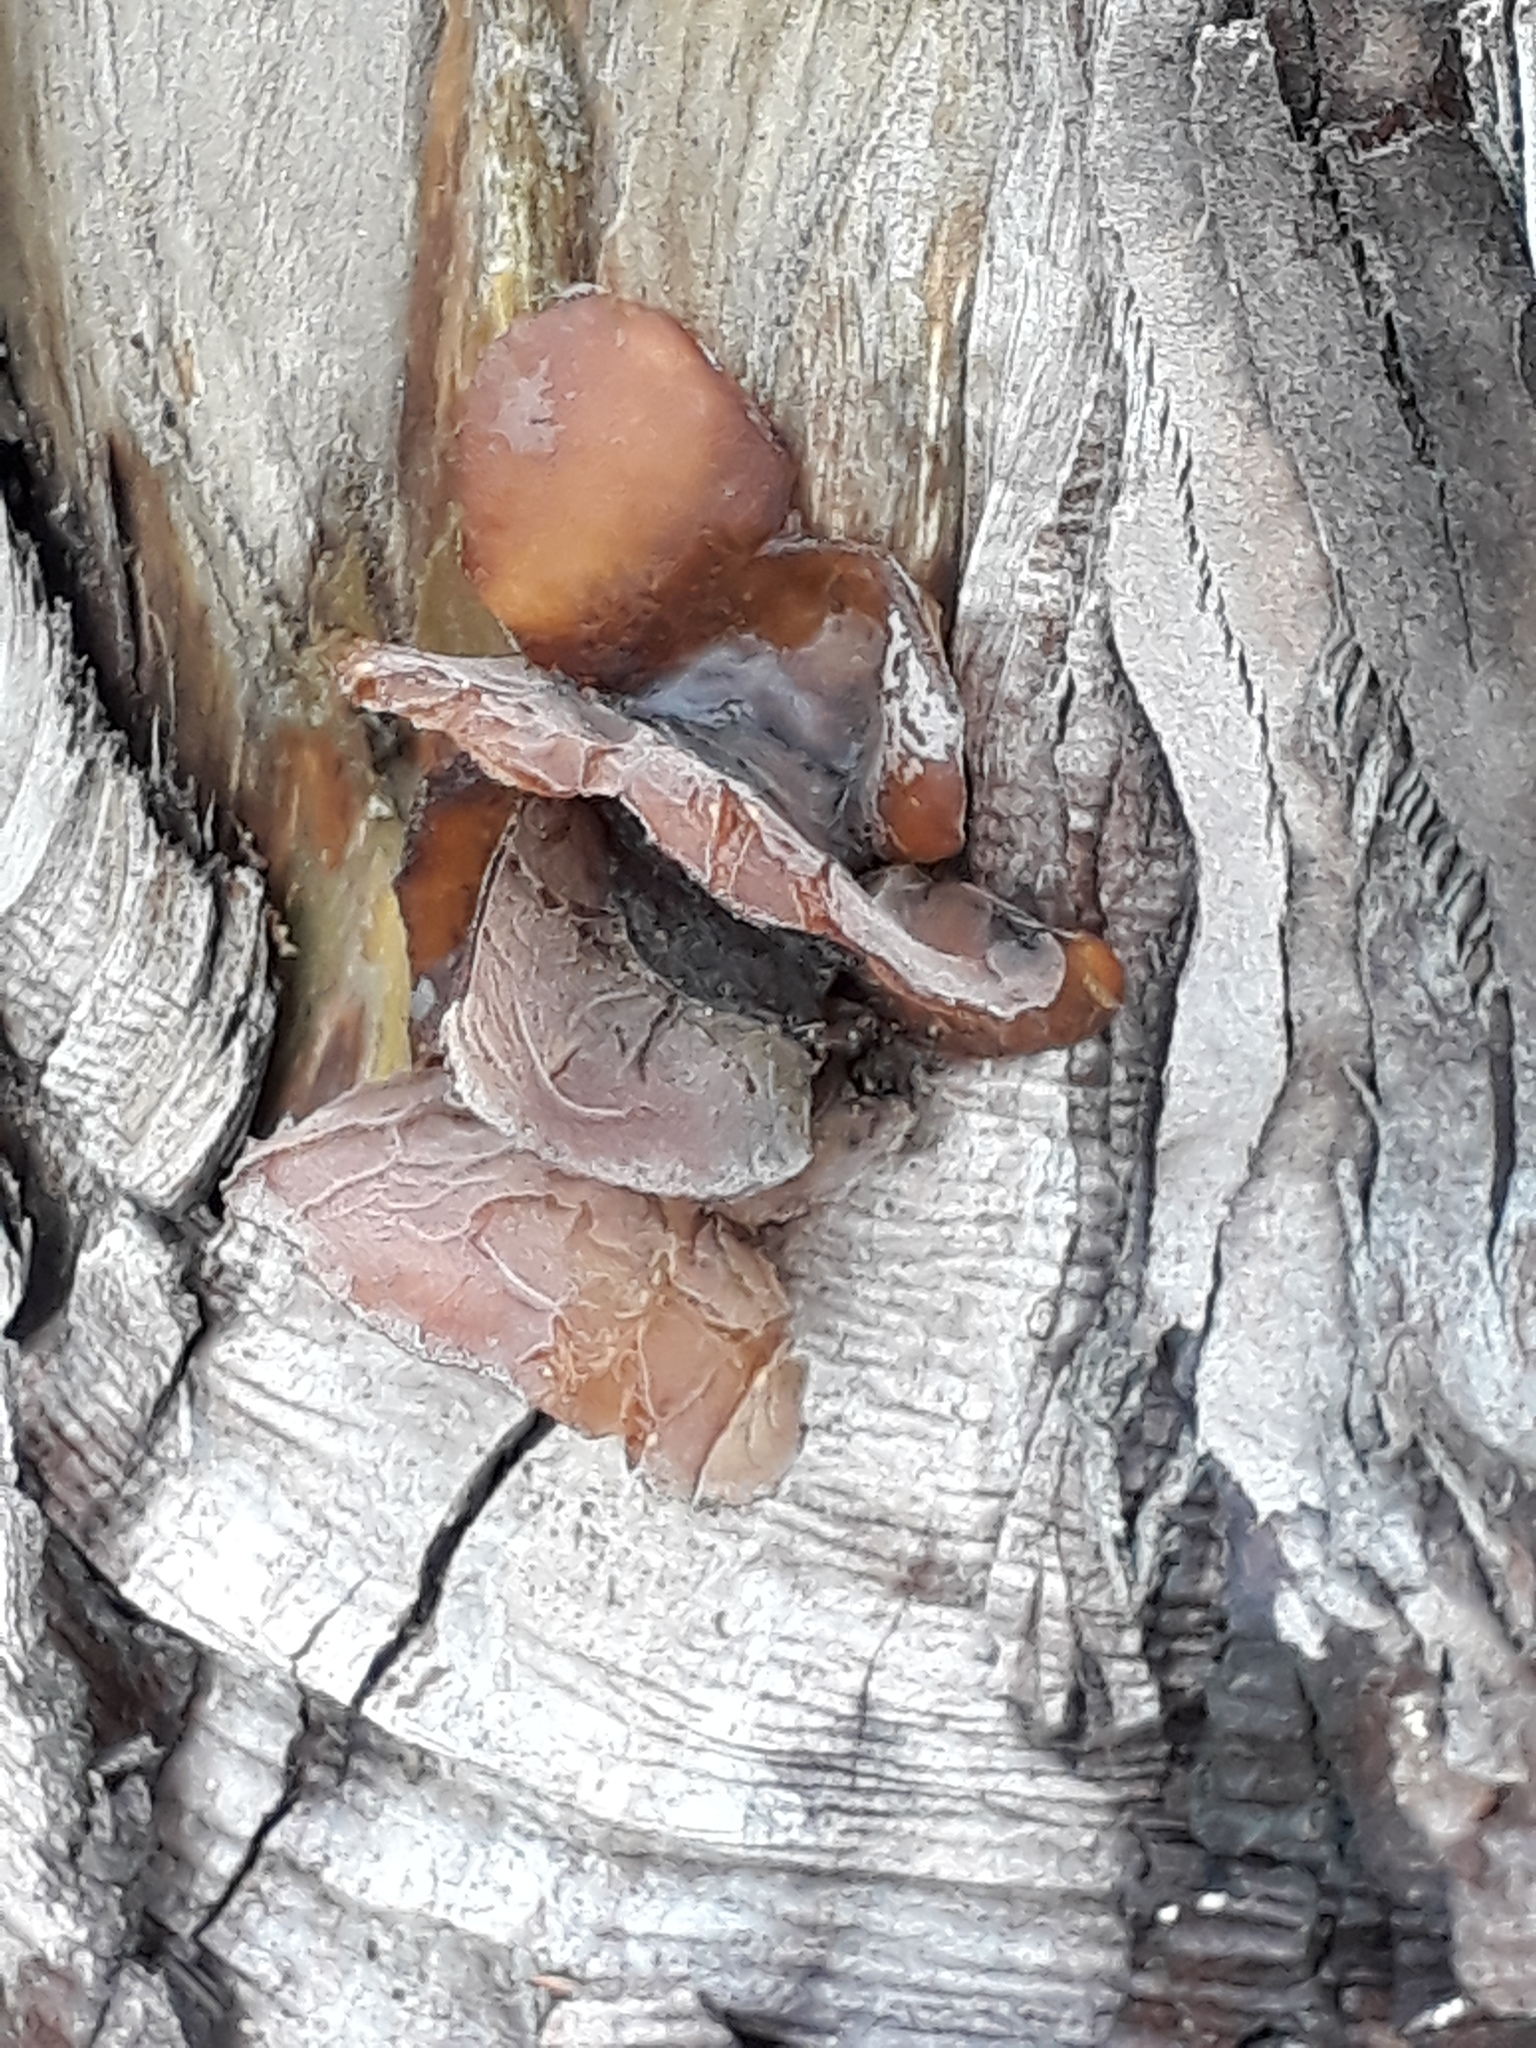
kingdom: Fungi
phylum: Basidiomycota
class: Agaricomycetes
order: Auriculariales
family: Auriculariaceae
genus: Auricularia
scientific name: Auricularia cornea
